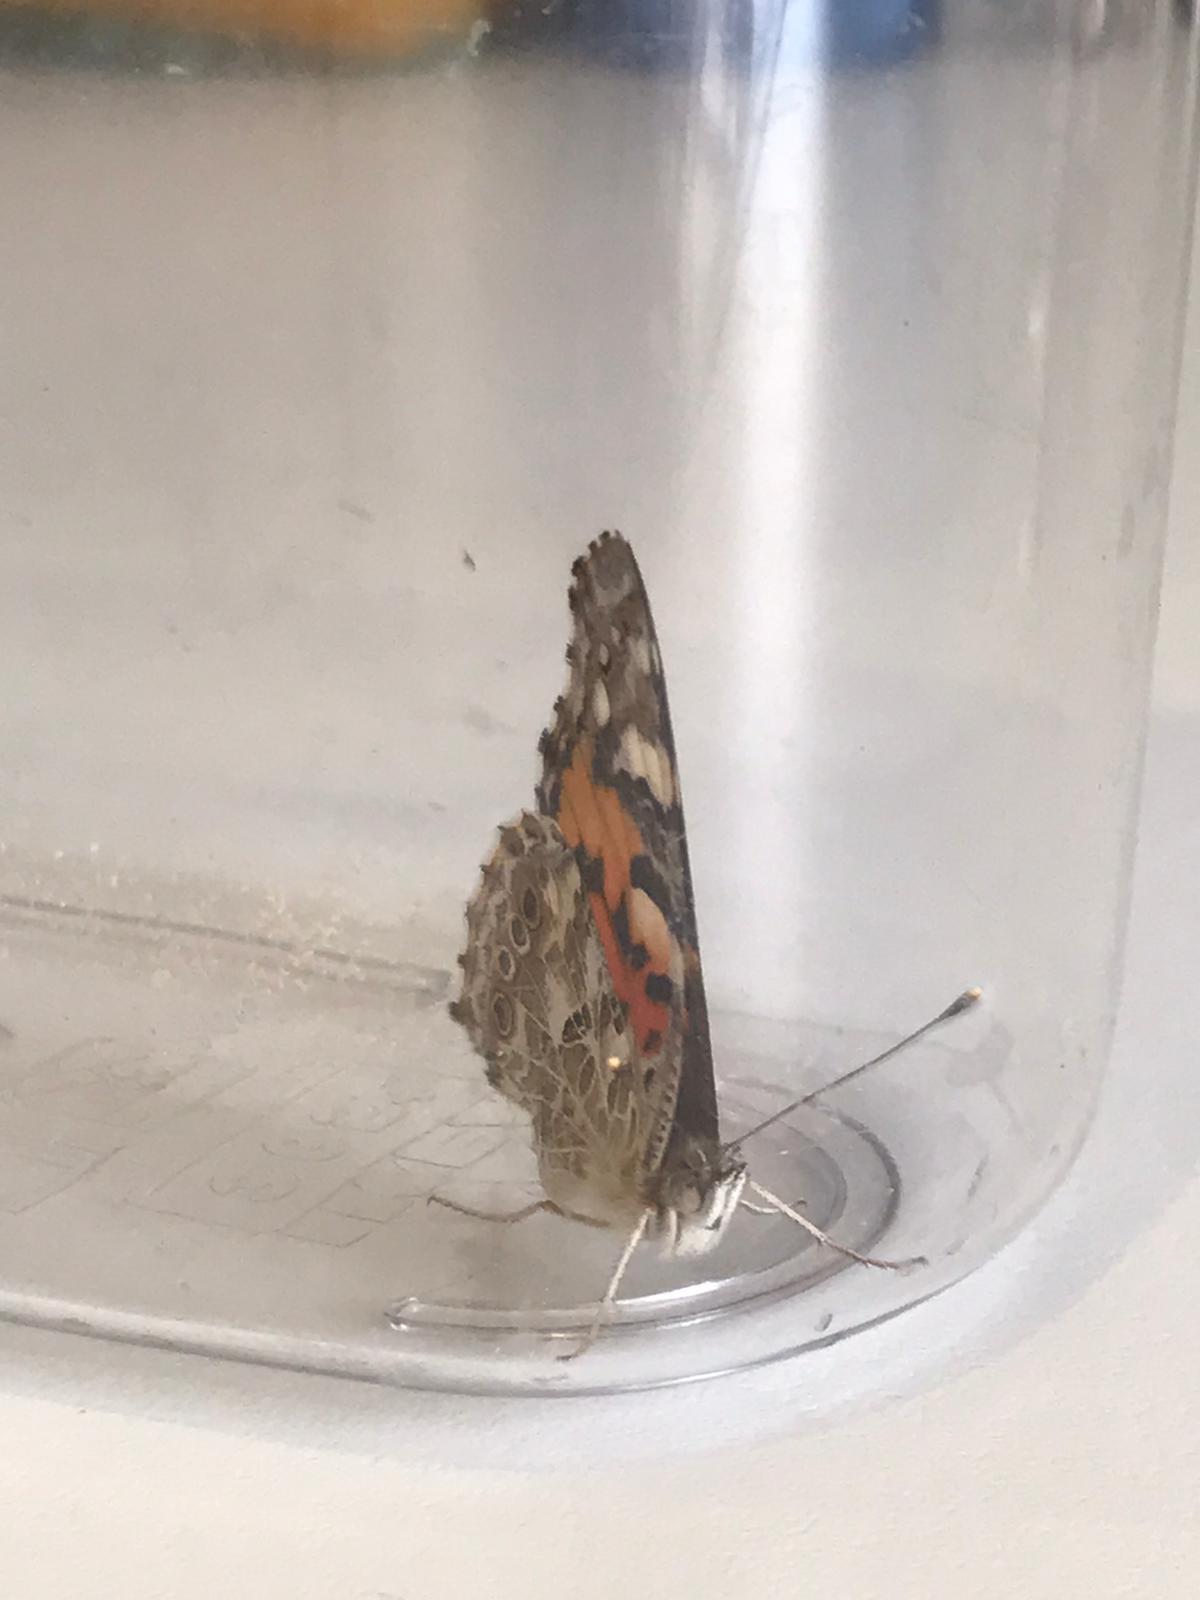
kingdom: Animalia
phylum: Arthropoda
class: Insecta
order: Lepidoptera
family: Nymphalidae
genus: Vanessa
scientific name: Vanessa cardui
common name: Painted lady
